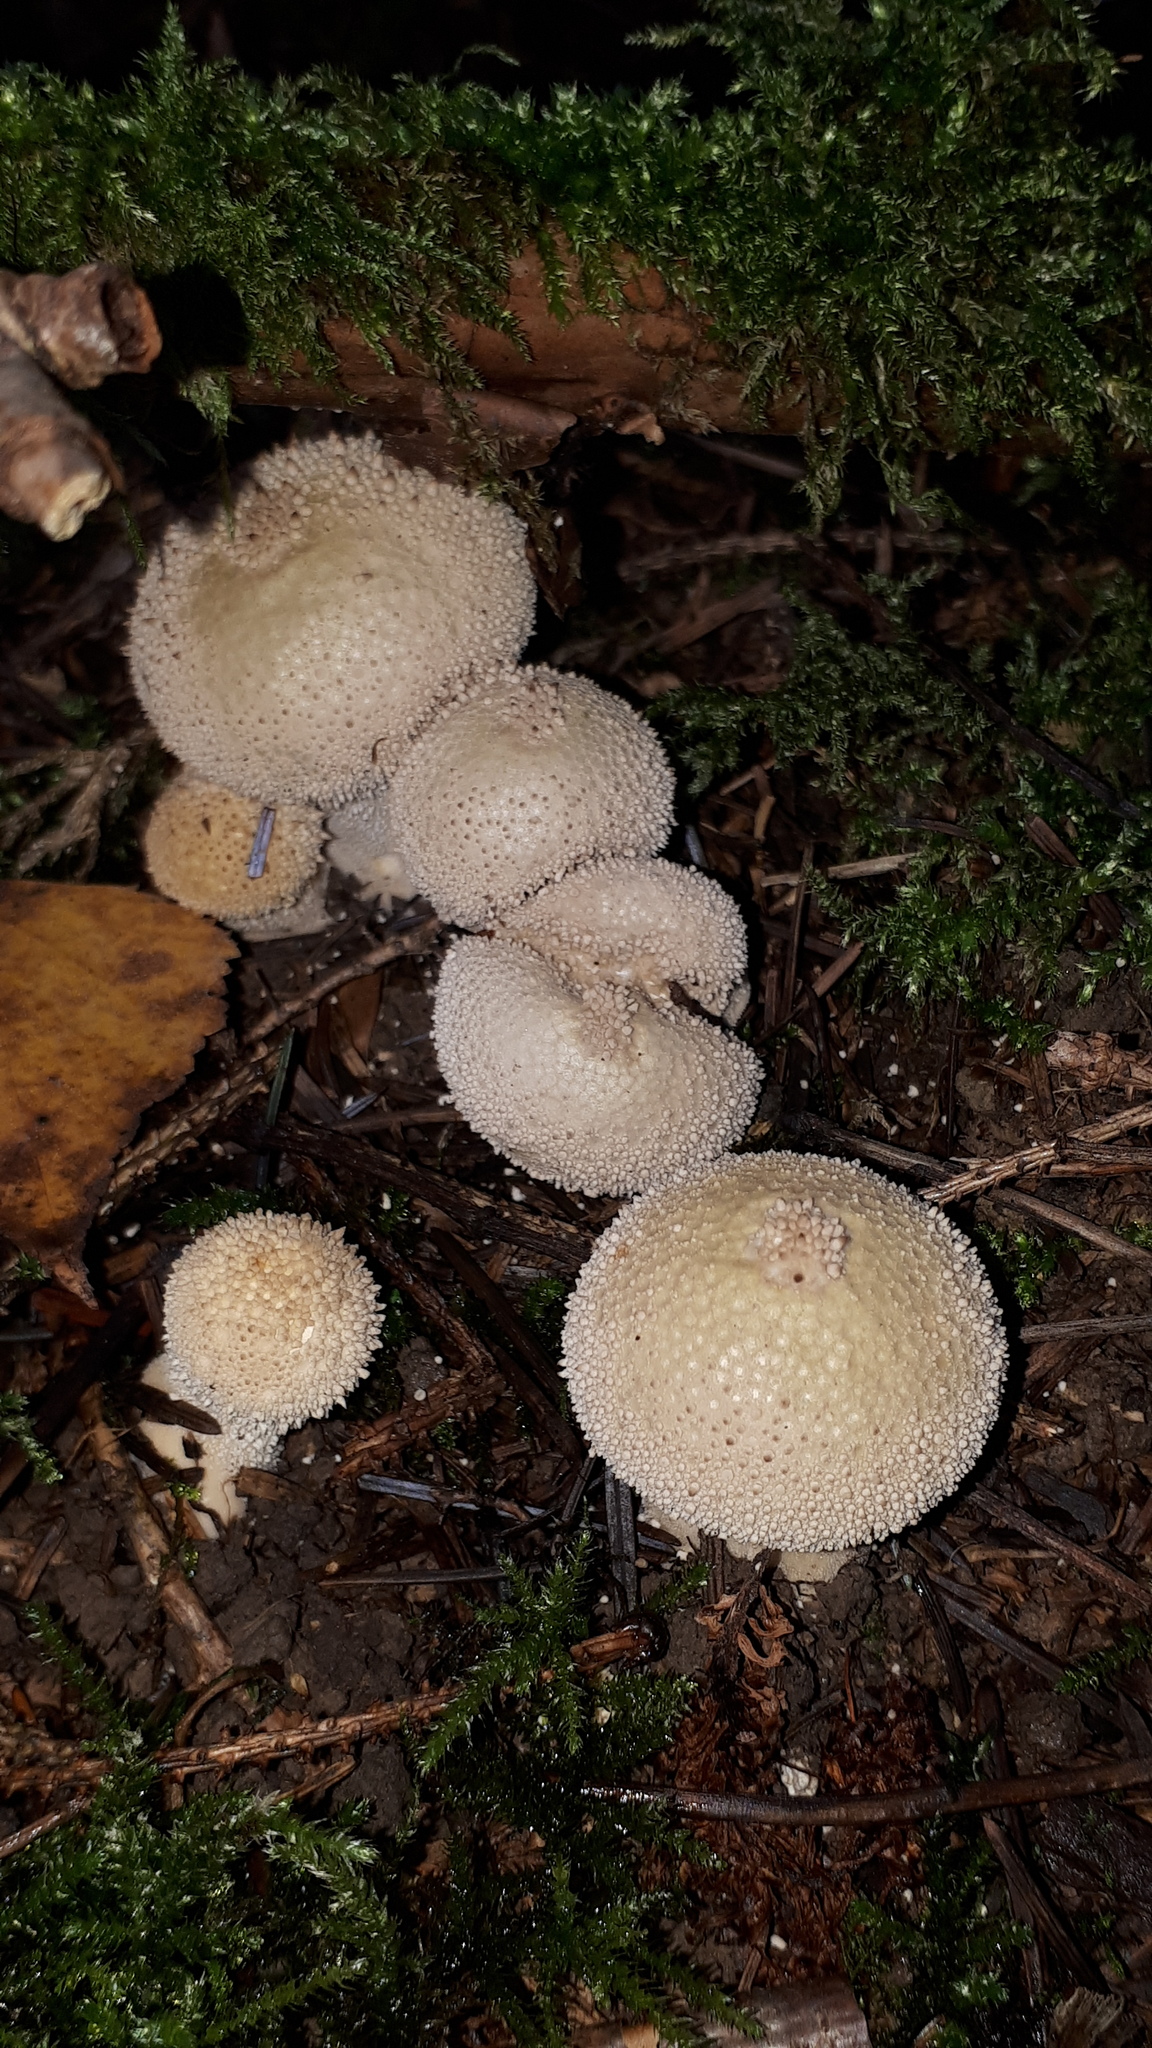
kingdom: Fungi
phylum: Basidiomycota
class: Agaricomycetes
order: Agaricales
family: Lycoperdaceae
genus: Lycoperdon
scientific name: Lycoperdon perlatum
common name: Common puffball
